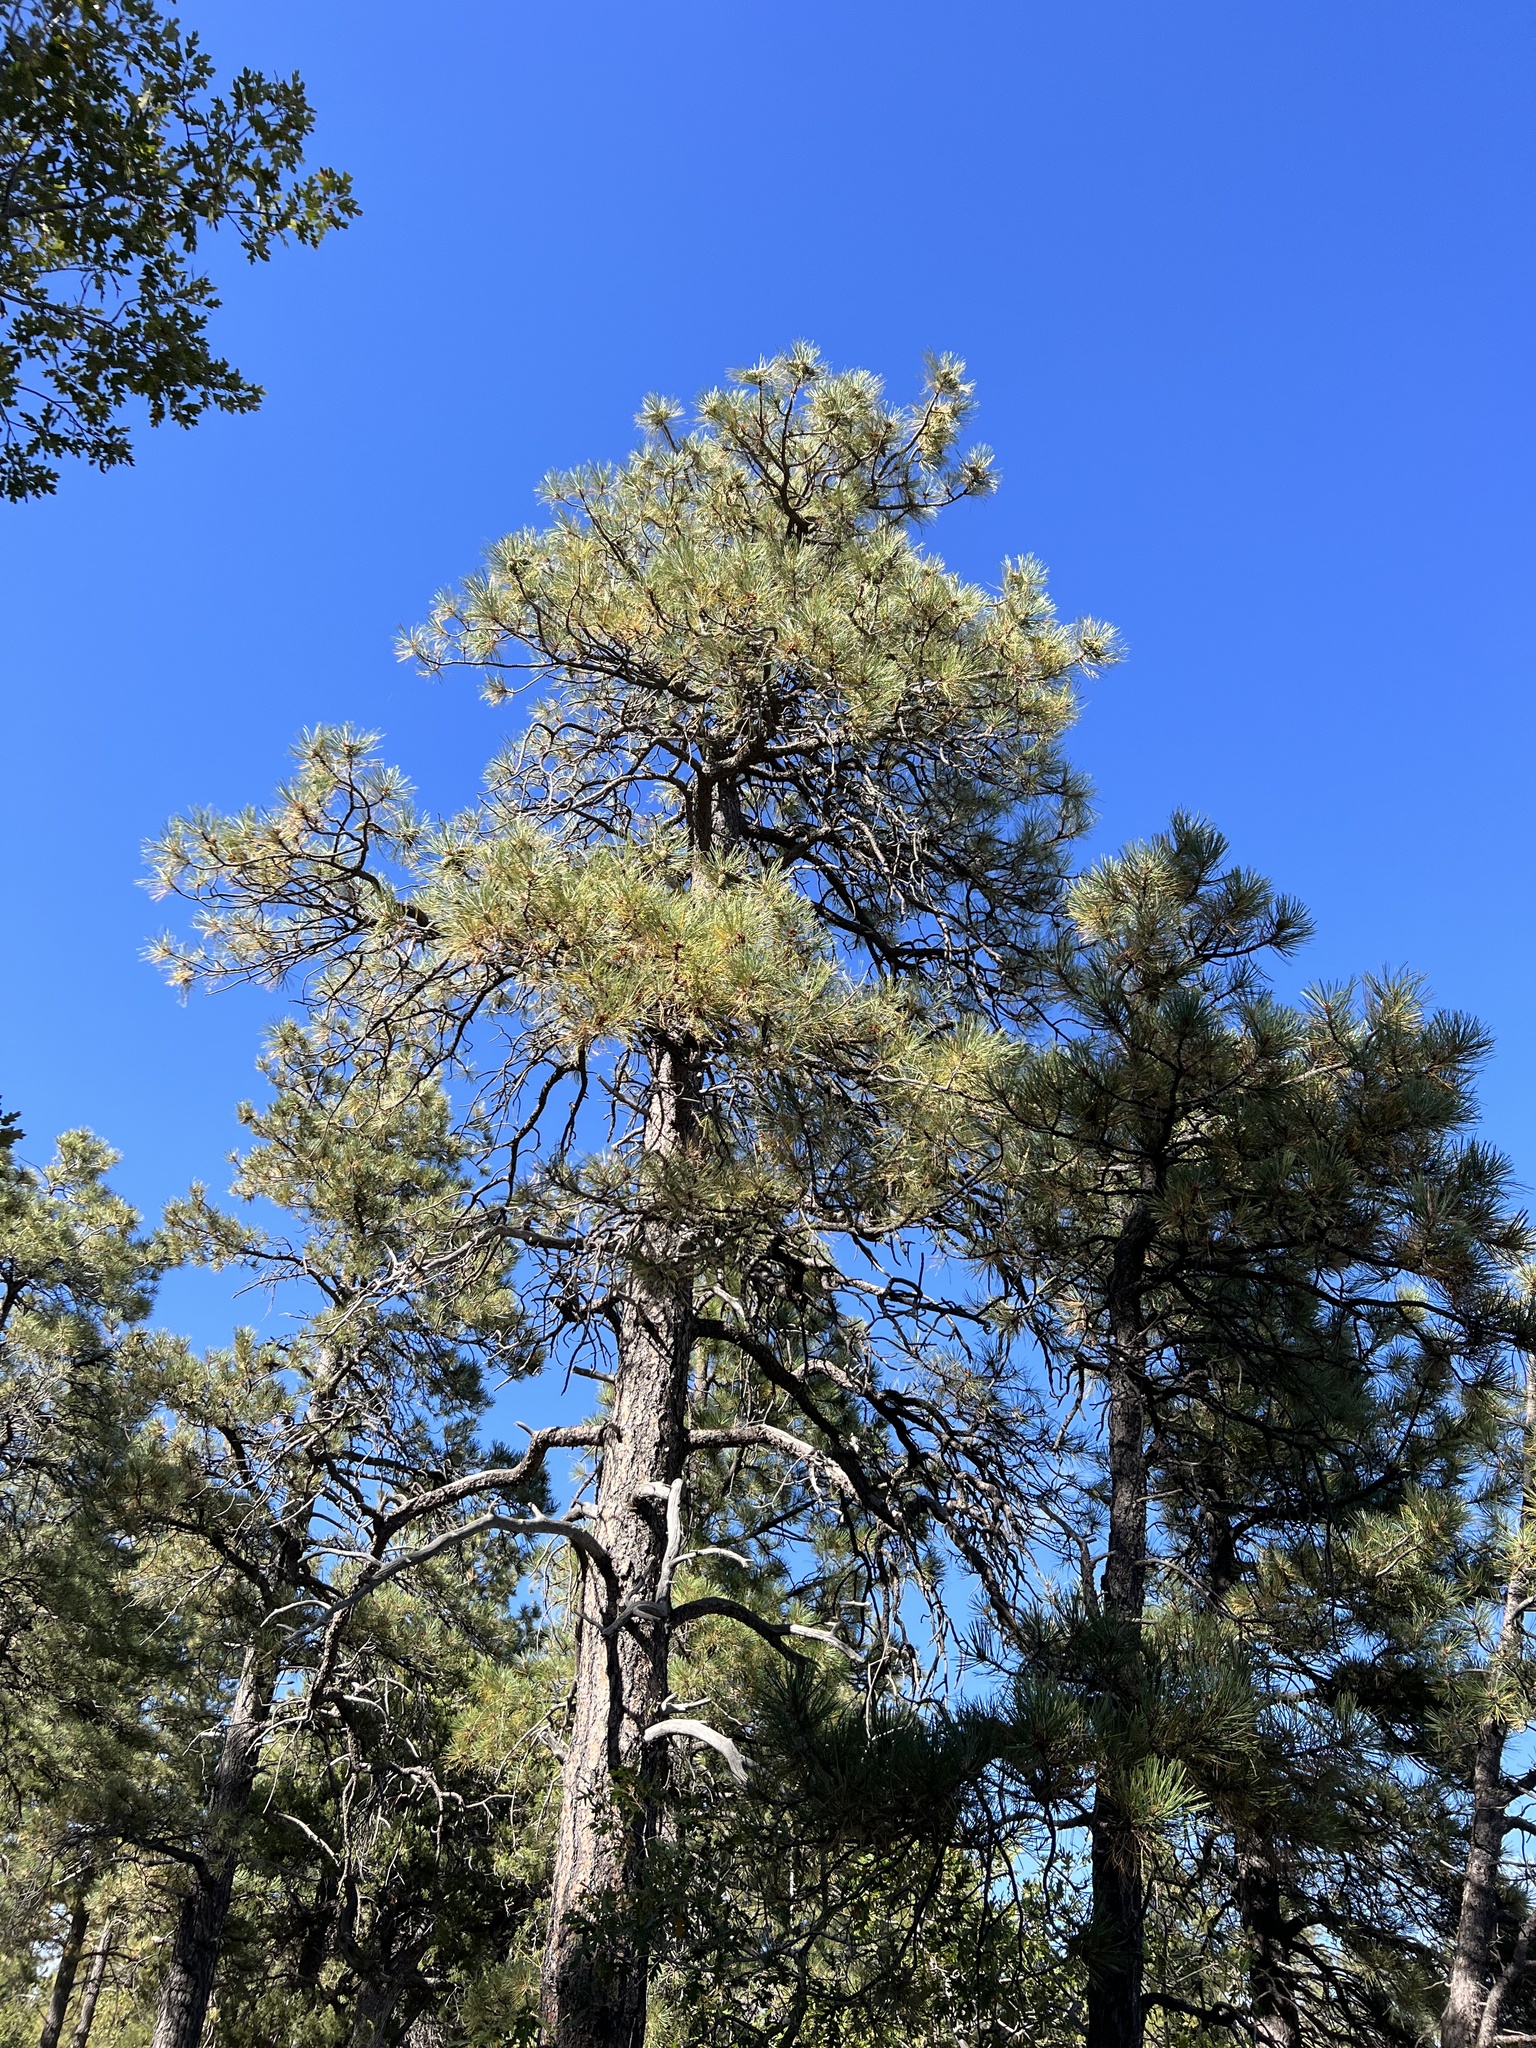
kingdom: Plantae
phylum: Tracheophyta
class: Pinopsida
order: Pinales
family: Pinaceae
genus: Pinus
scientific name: Pinus ponderosa
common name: Western yellow-pine
